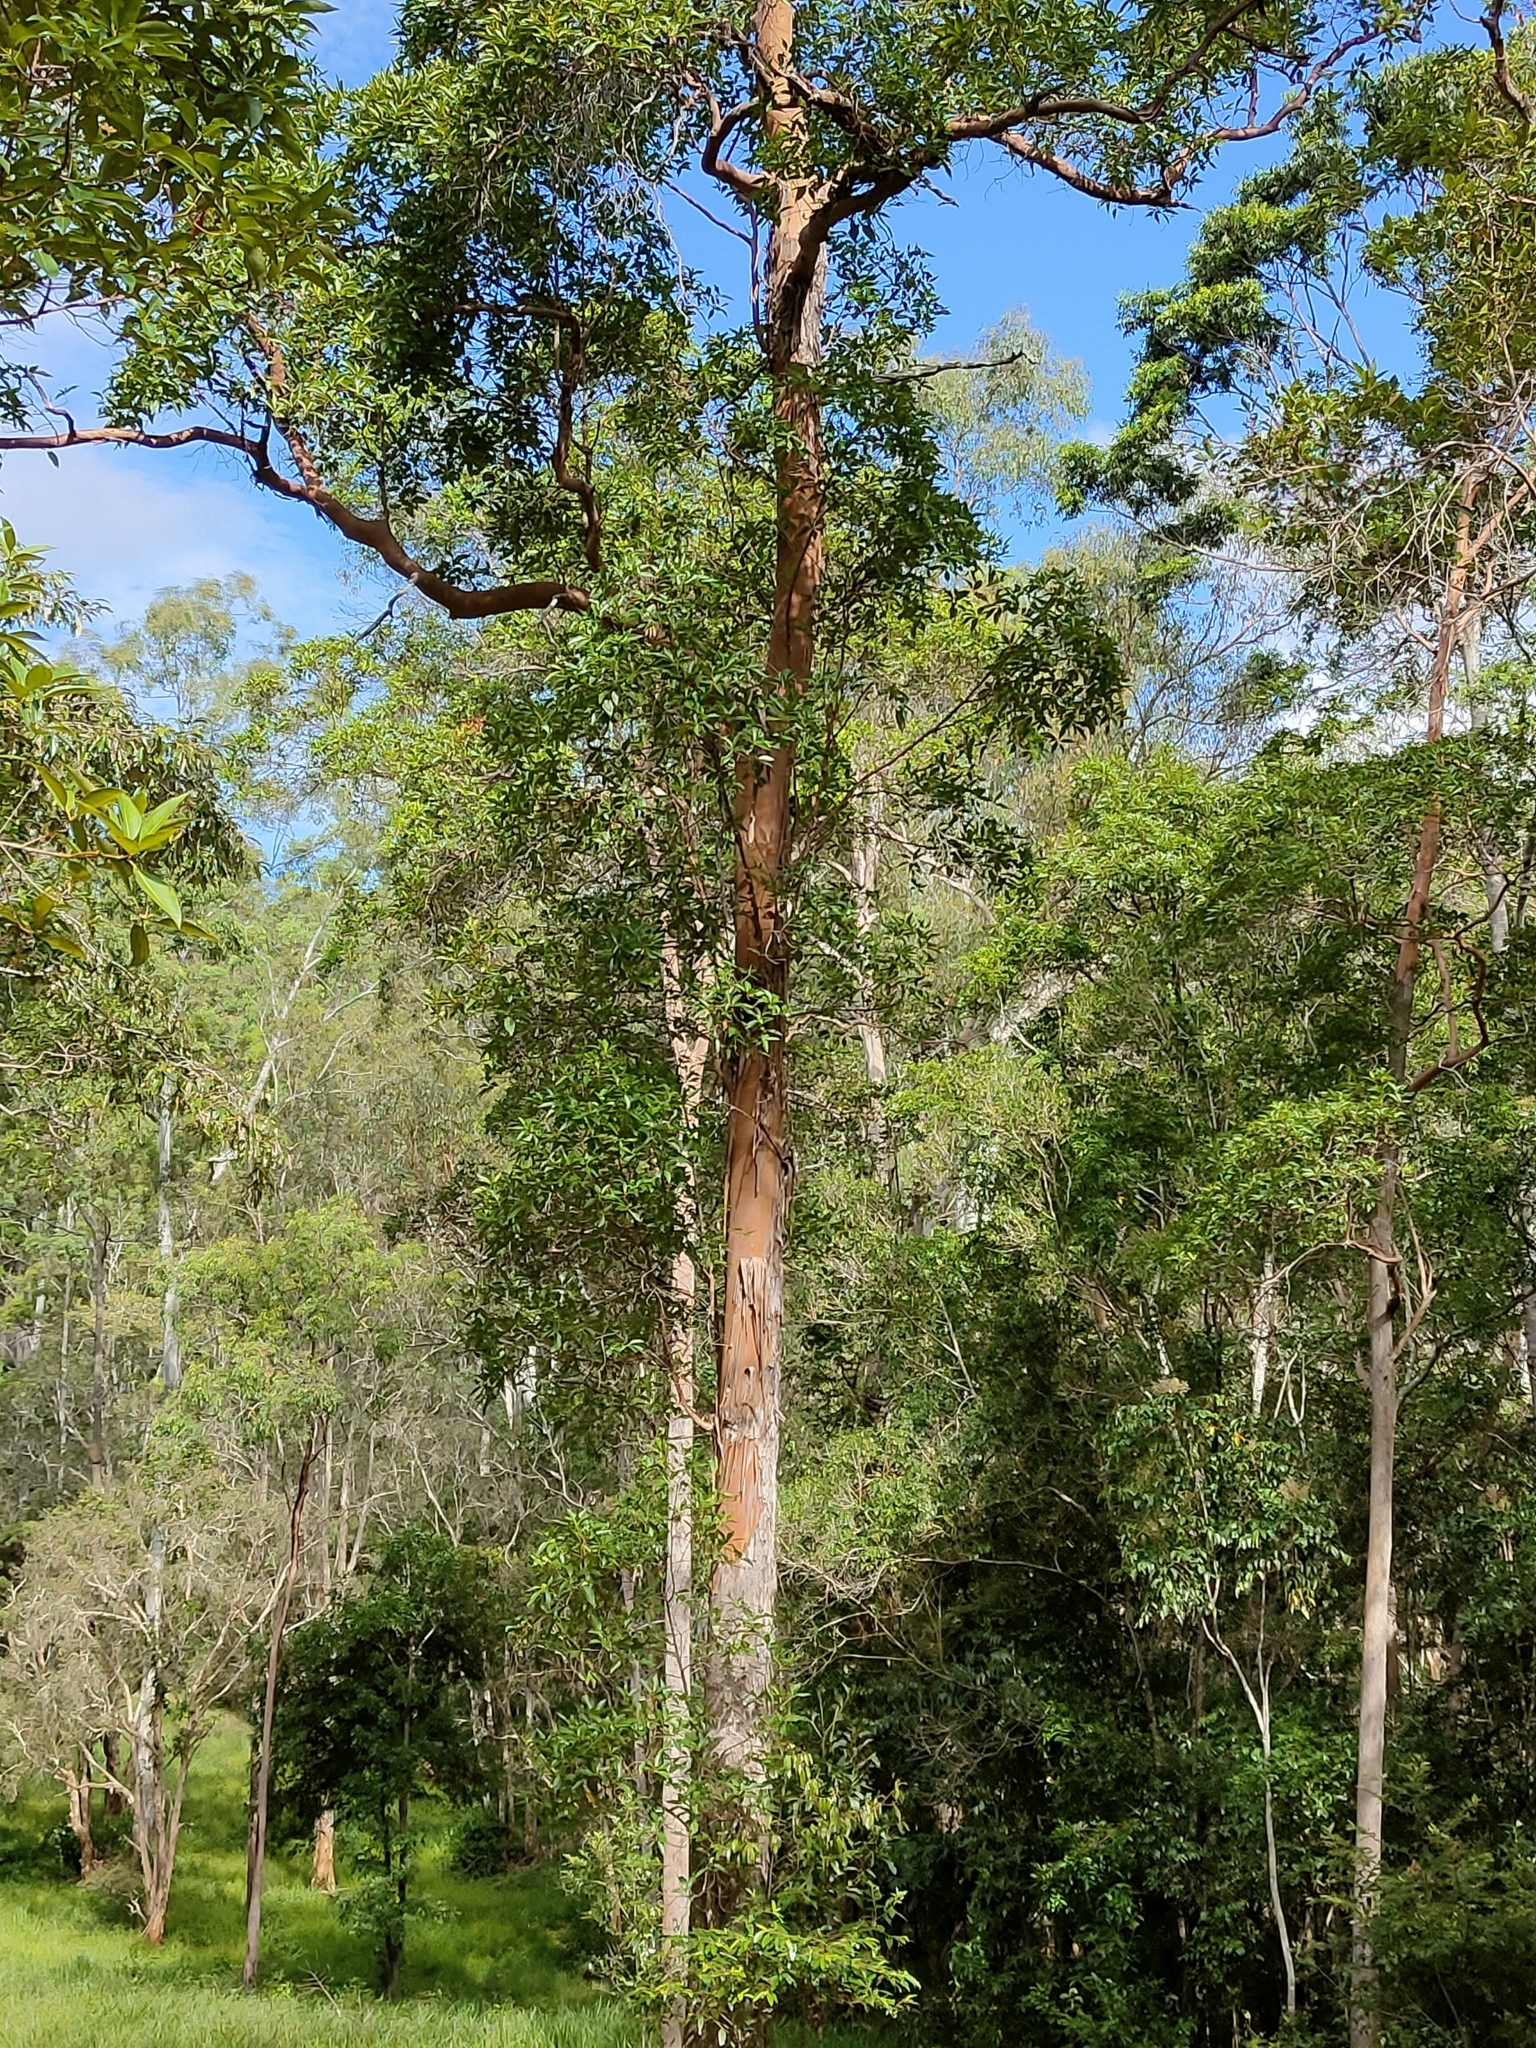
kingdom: Plantae
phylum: Tracheophyta
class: Magnoliopsida
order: Myrtales
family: Myrtaceae
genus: Lophostemon
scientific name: Lophostemon confertus
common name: Brisbane box
